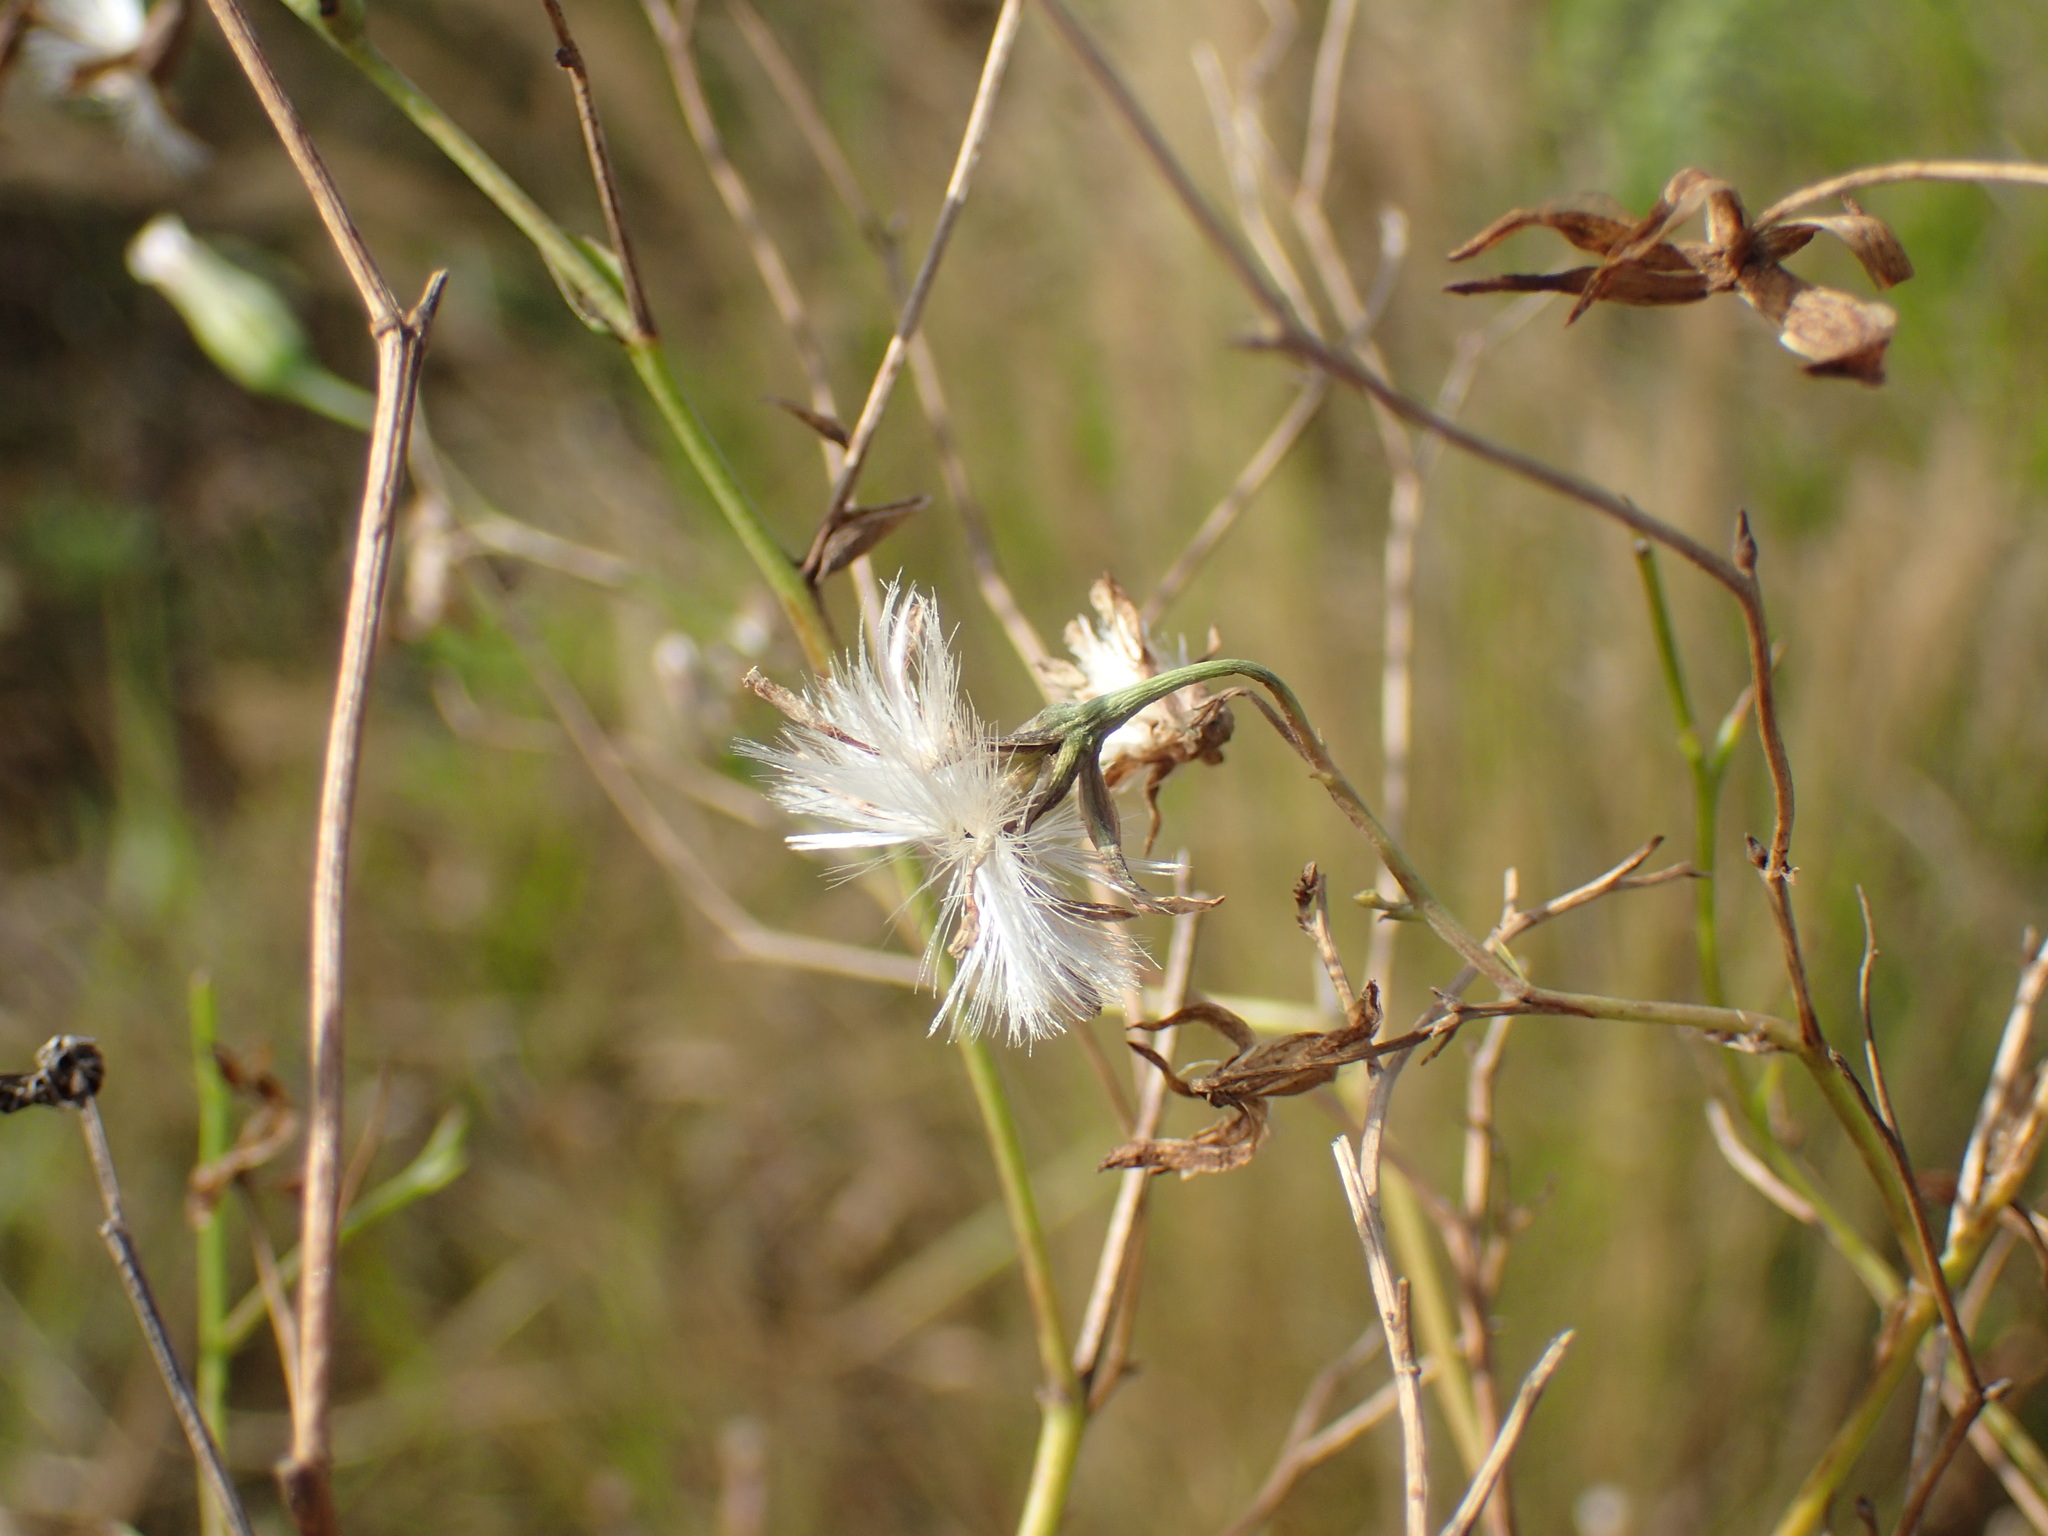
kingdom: Plantae
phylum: Tracheophyta
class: Magnoliopsida
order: Asterales
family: Asteraceae
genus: Lopholaena
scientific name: Lopholaena segmentata
